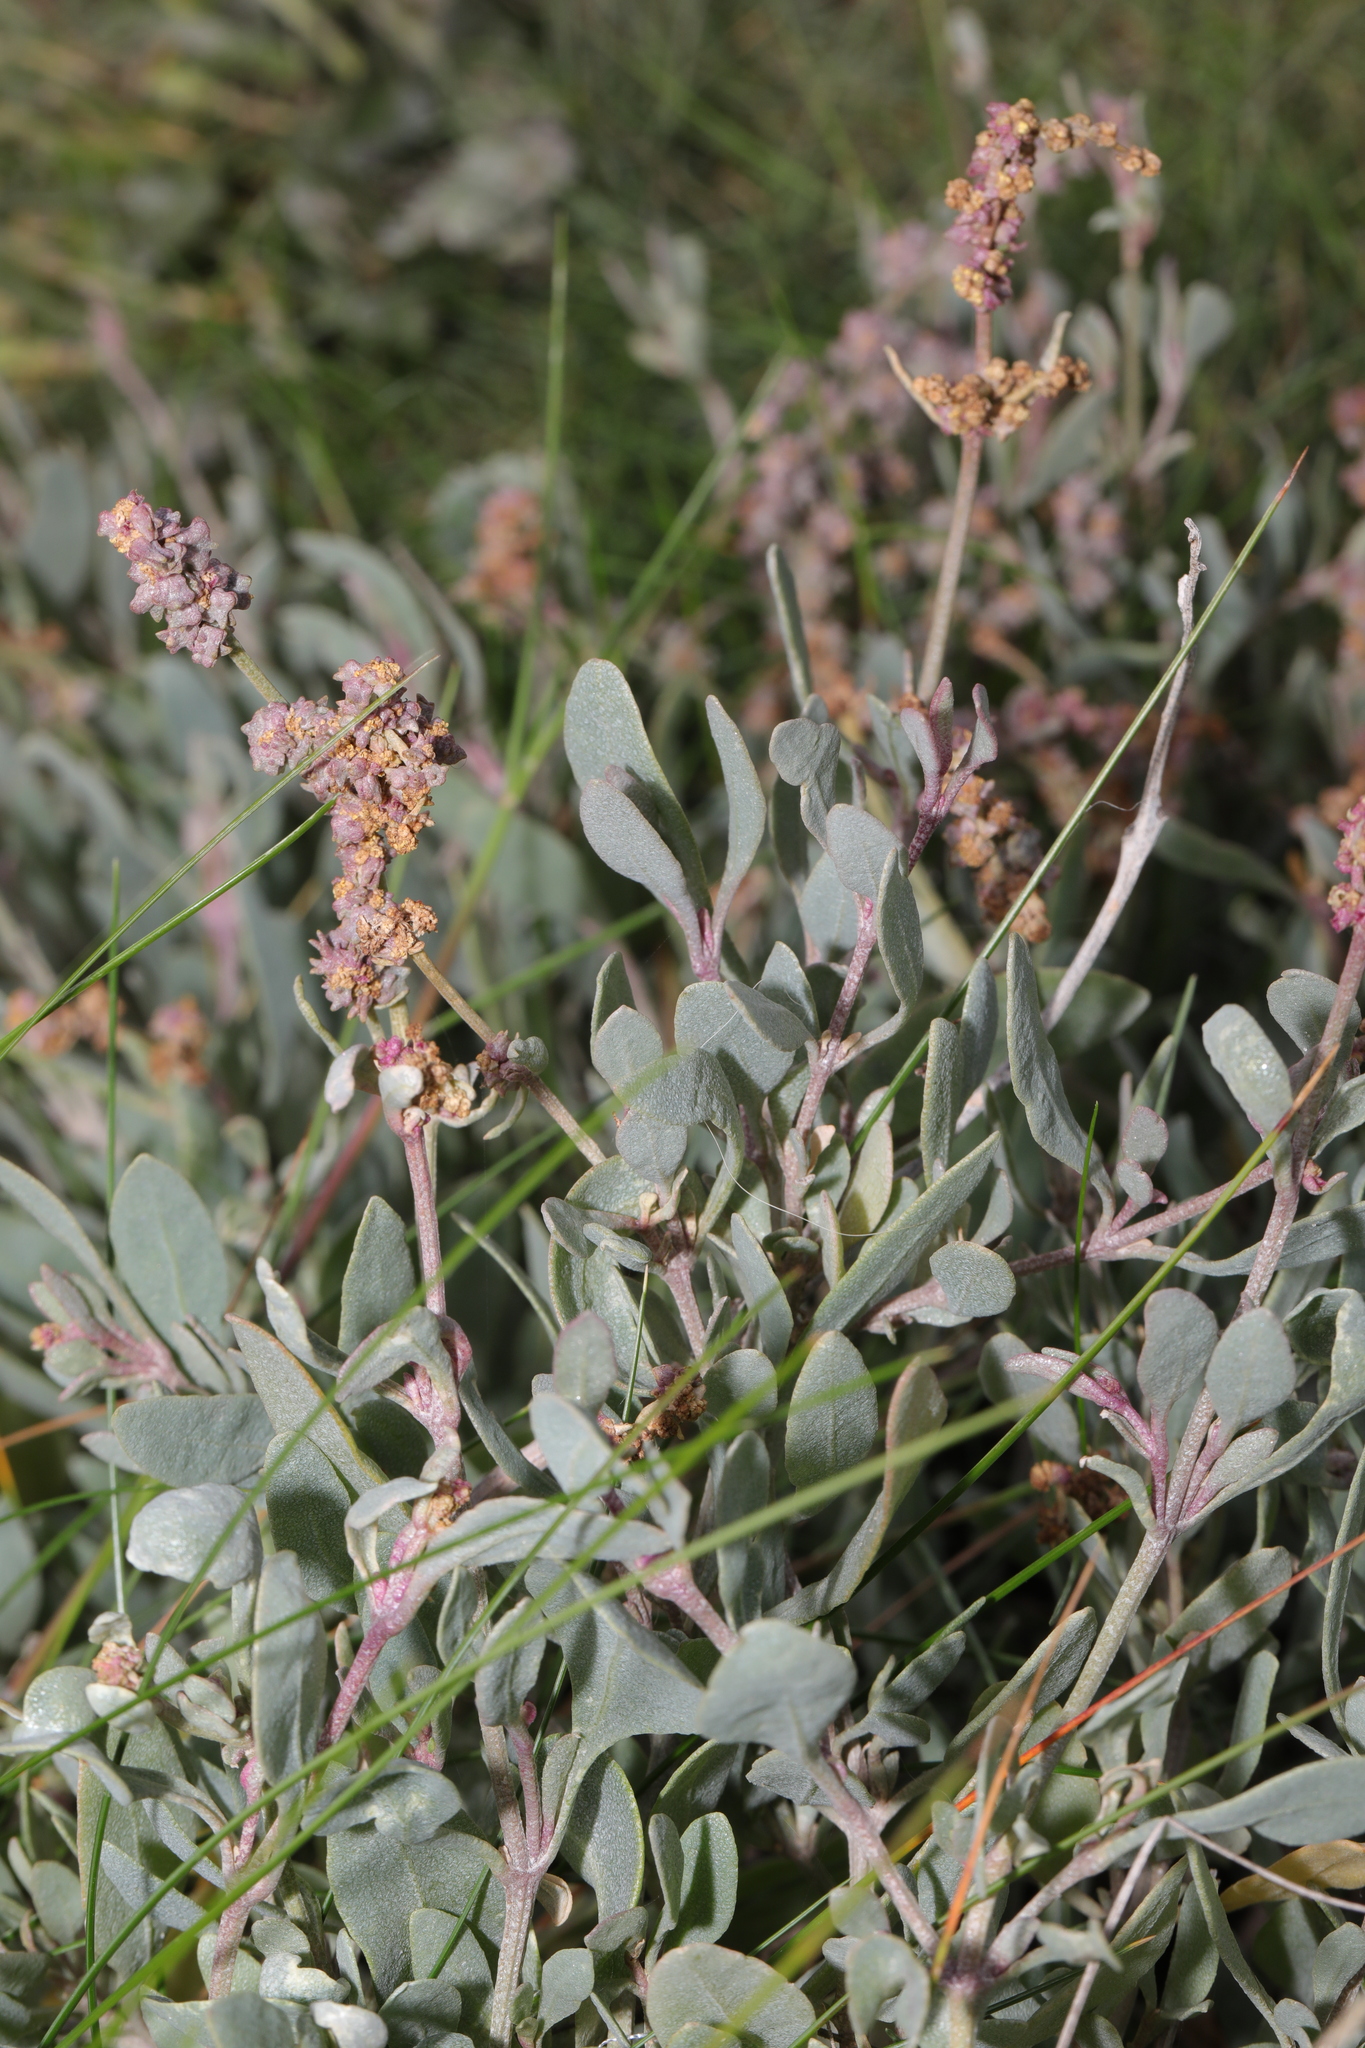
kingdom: Plantae
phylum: Tracheophyta
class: Magnoliopsida
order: Caryophyllales
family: Amaranthaceae
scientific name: Amaranthaceae
